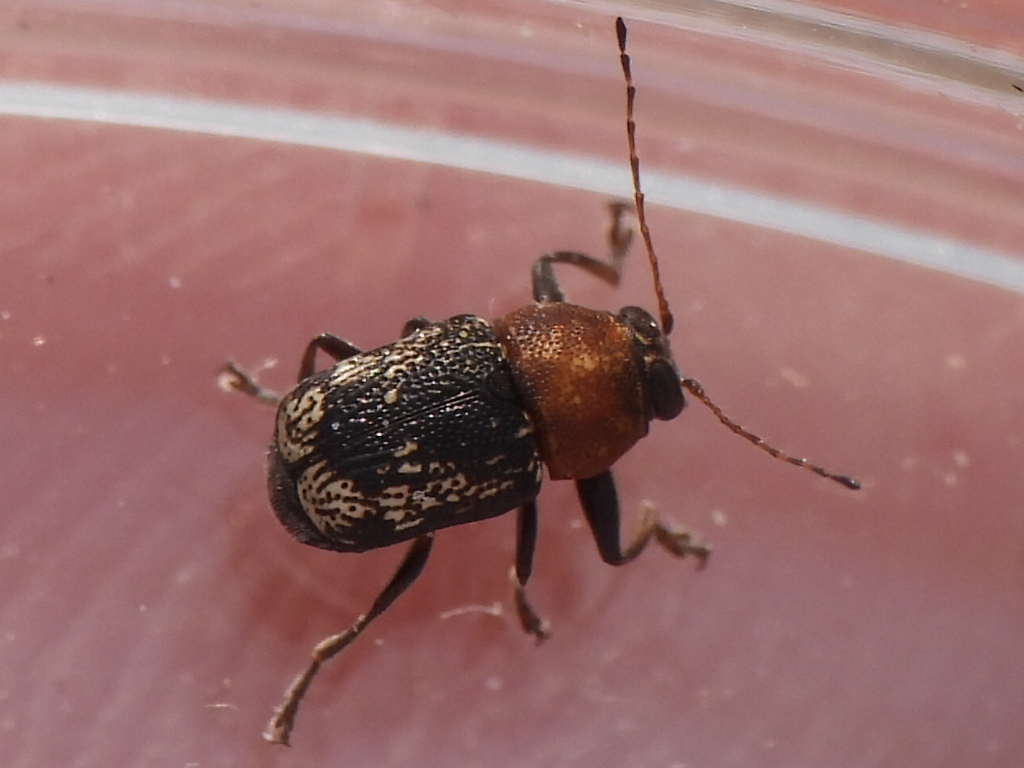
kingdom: Animalia
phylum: Arthropoda
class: Insecta
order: Coleoptera
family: Chrysomelidae
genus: Pachybrachis
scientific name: Pachybrachis luridus
